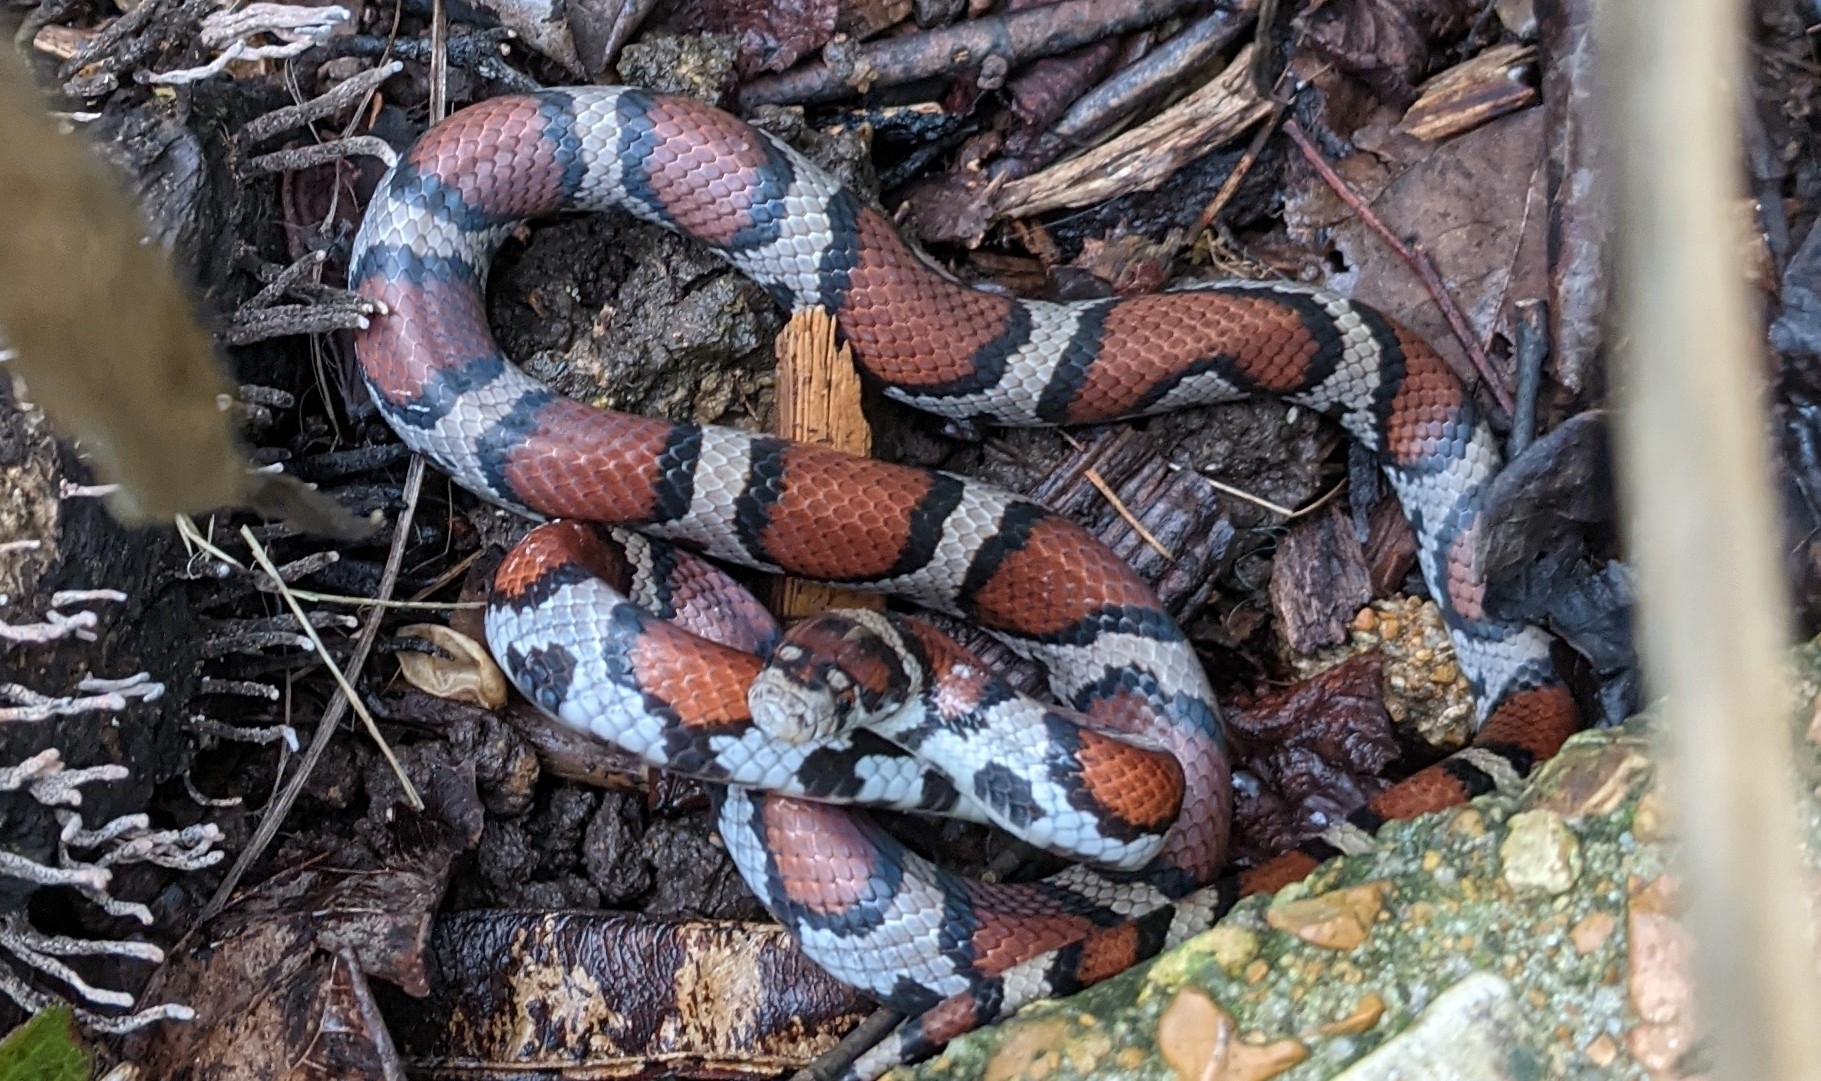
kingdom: Animalia
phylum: Chordata
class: Squamata
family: Colubridae
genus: Lampropeltis
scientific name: Lampropeltis triangulum
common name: Eastern milksnake
